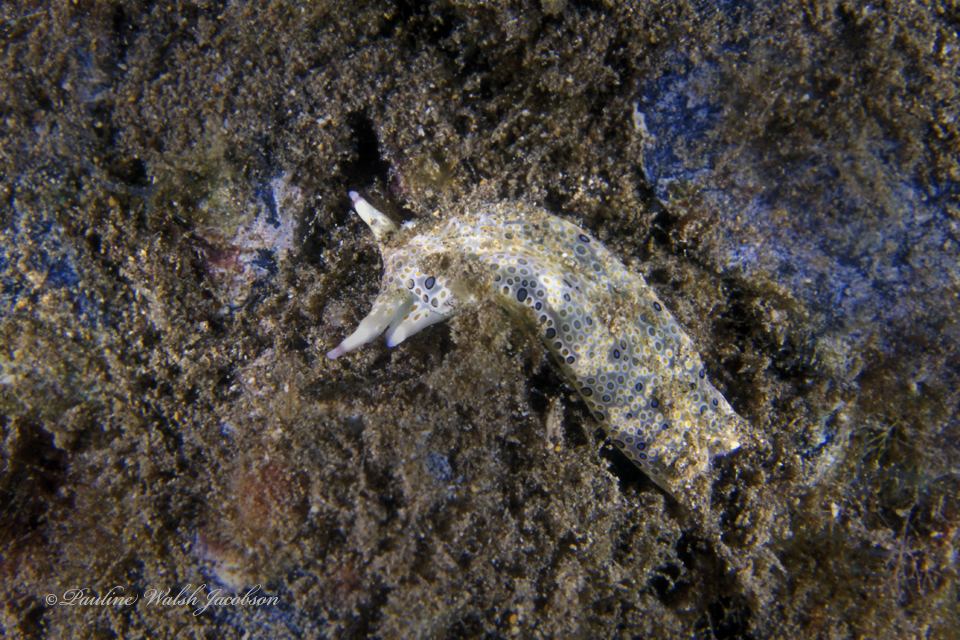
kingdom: Animalia
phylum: Mollusca
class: Gastropoda
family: Plakobranchidae
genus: Plakobranchus
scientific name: Plakobranchus ocellatus
